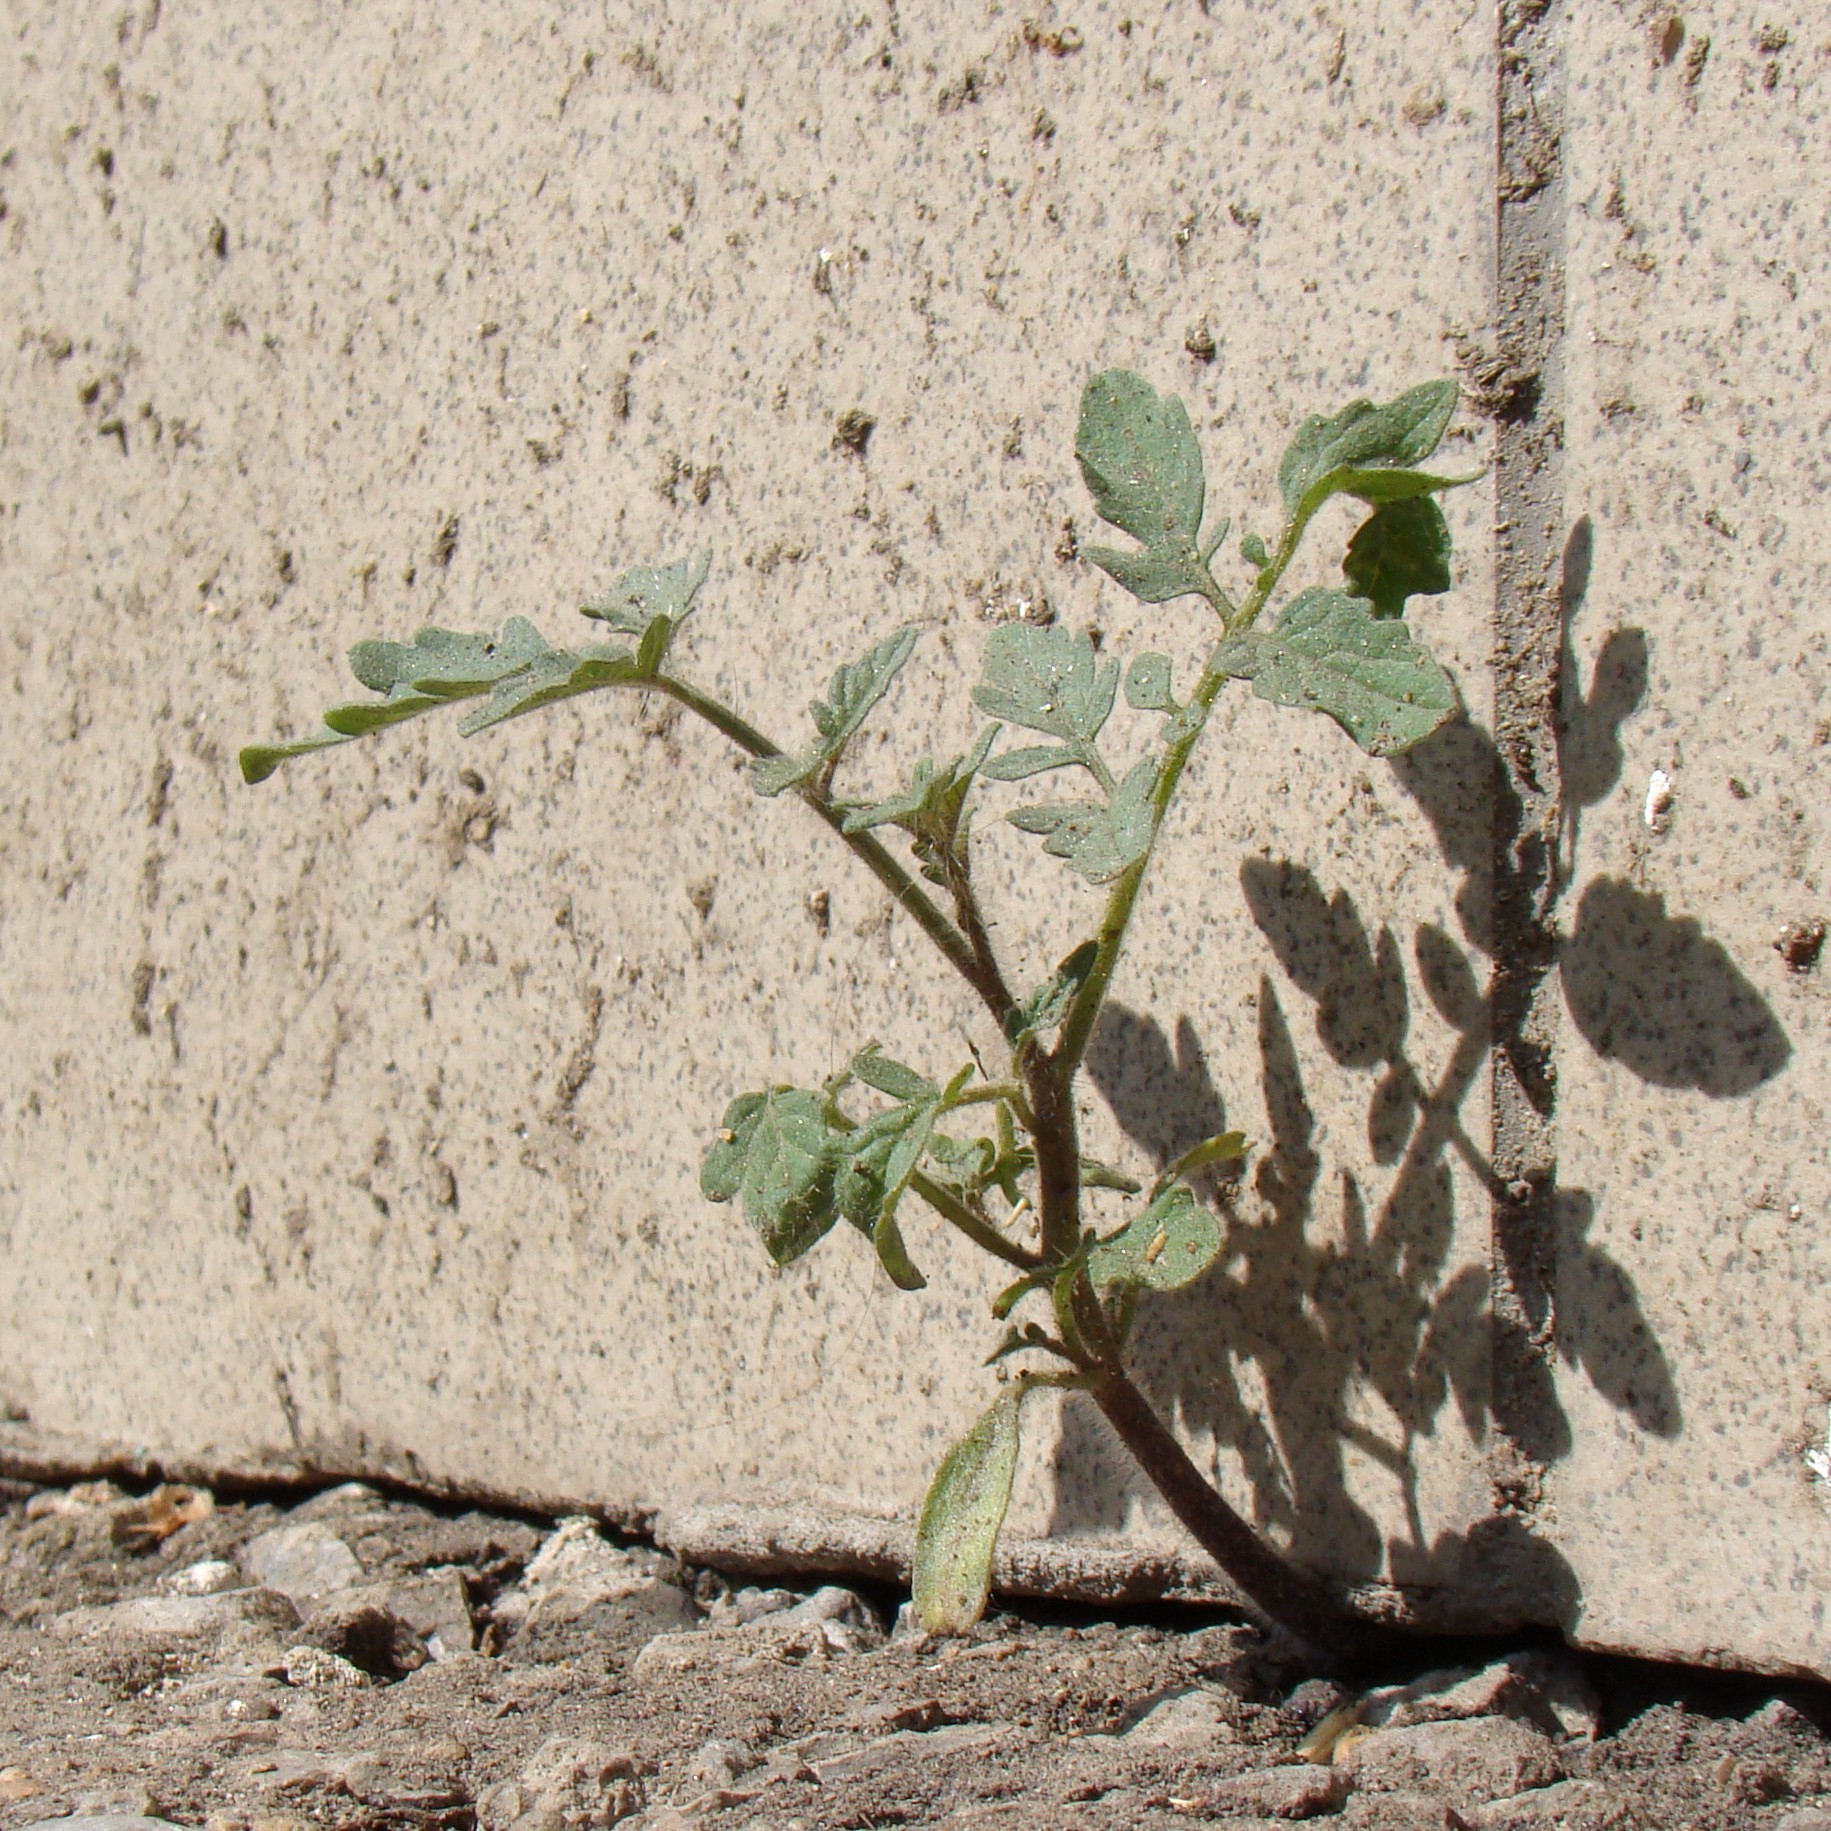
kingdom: Plantae
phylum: Tracheophyta
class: Magnoliopsida
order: Solanales
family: Solanaceae
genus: Solanum
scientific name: Solanum lycopersicum
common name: Garden tomato
